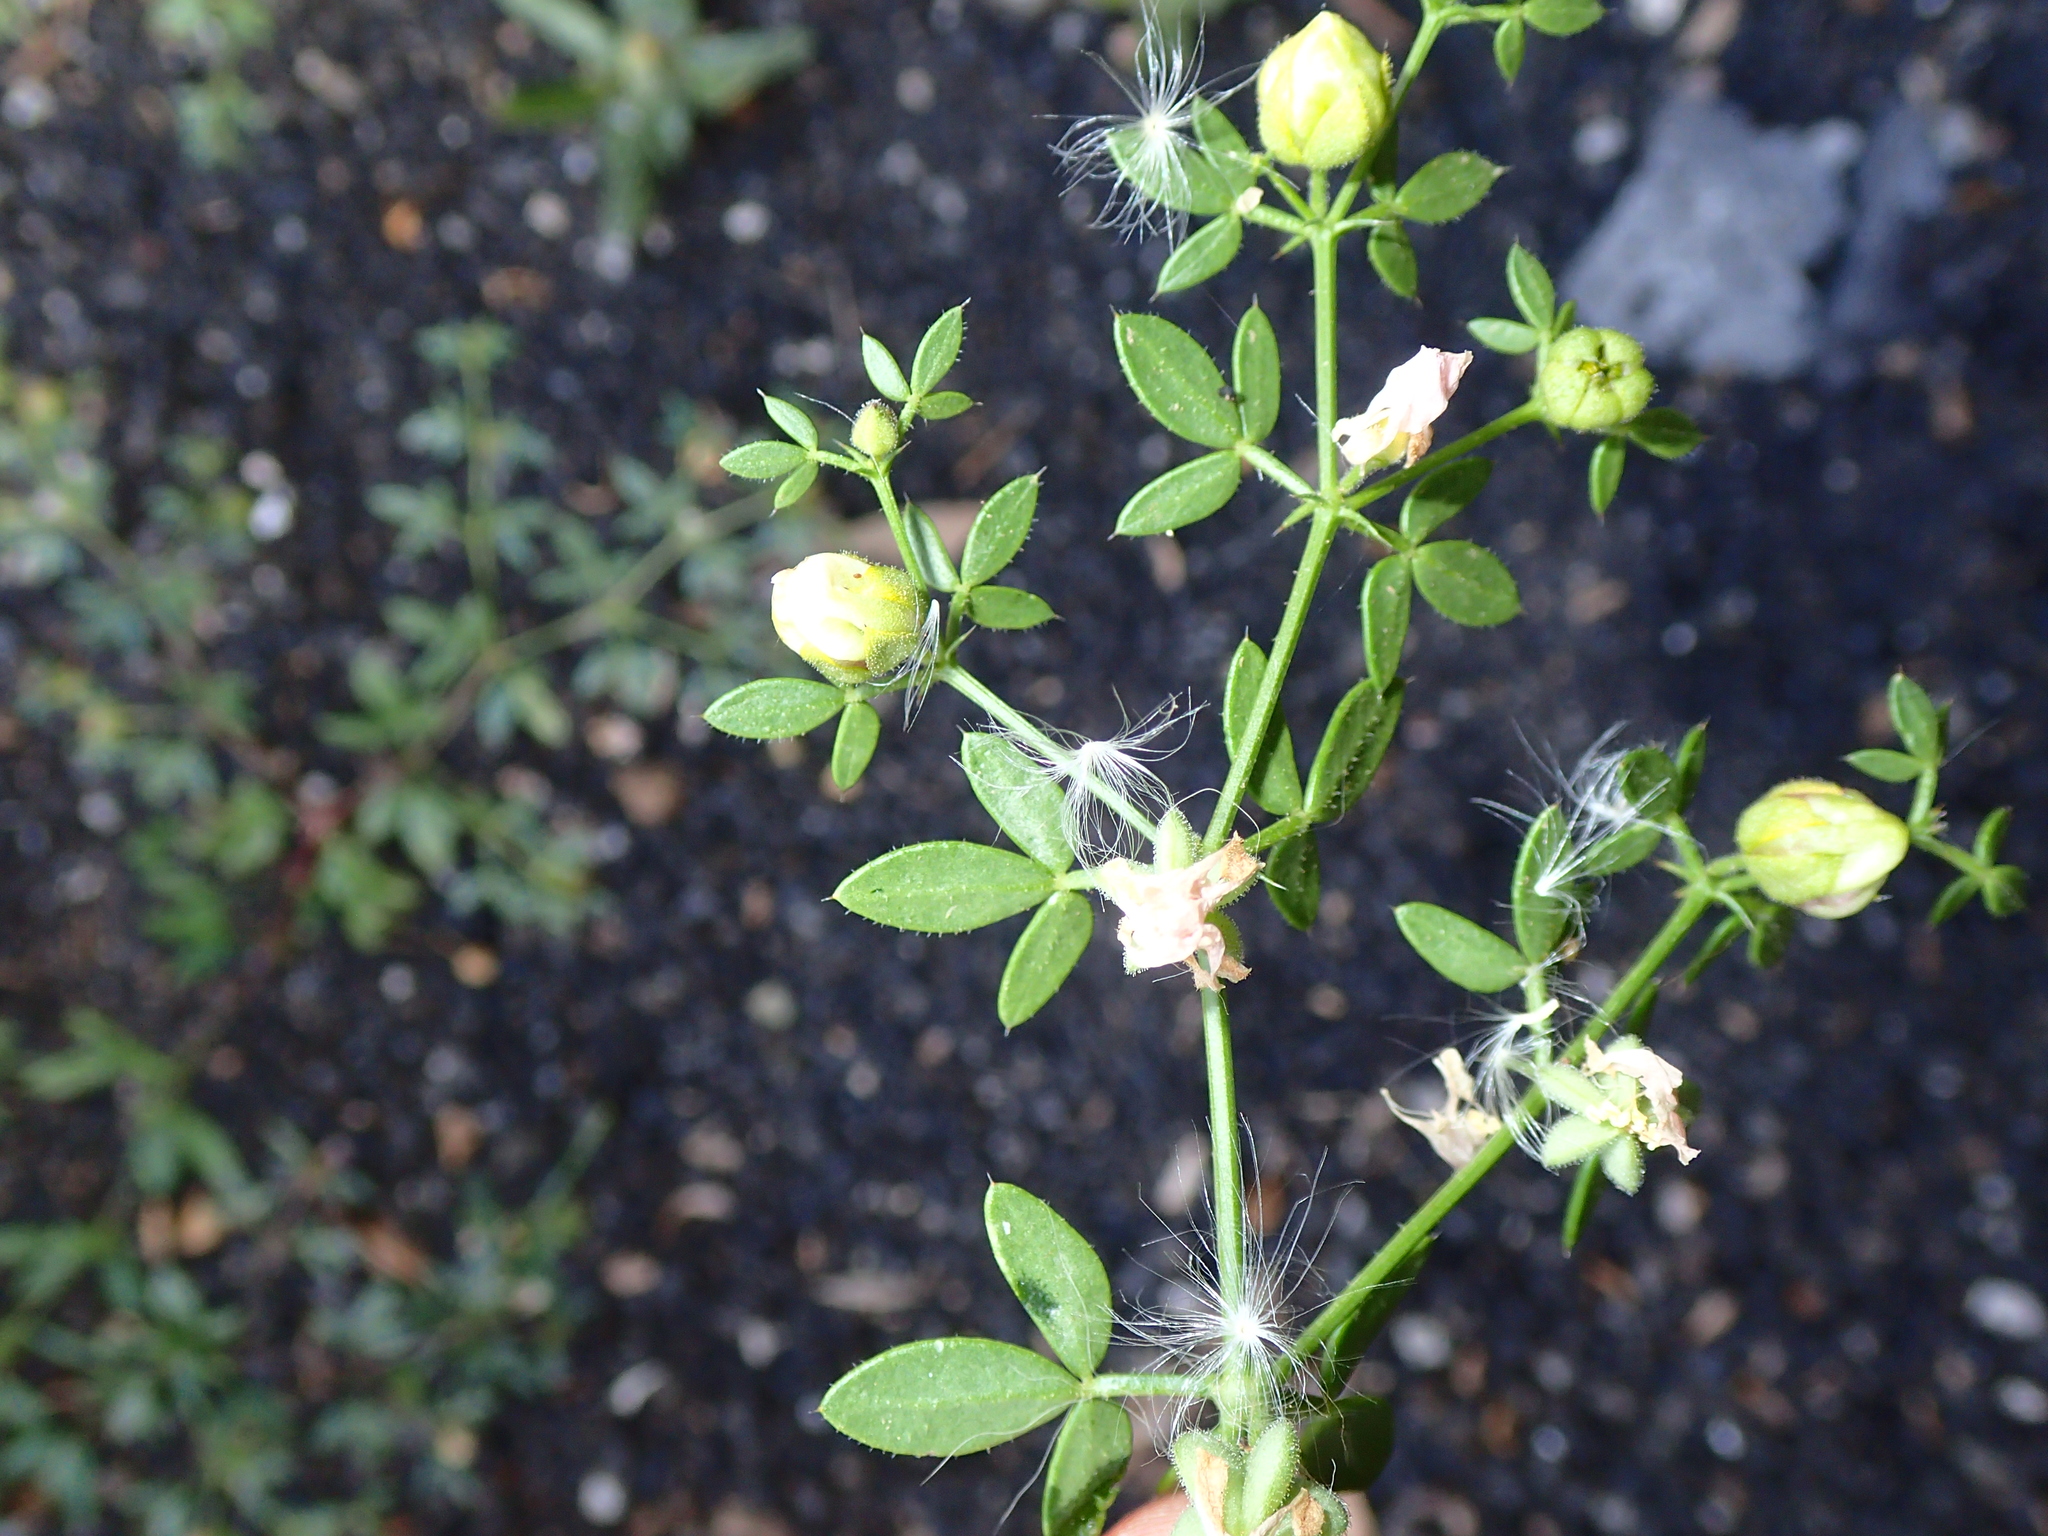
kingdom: Plantae
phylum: Tracheophyta
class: Magnoliopsida
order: Zygophyllales
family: Zygophyllaceae
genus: Fagonia
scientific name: Fagonia cretica
